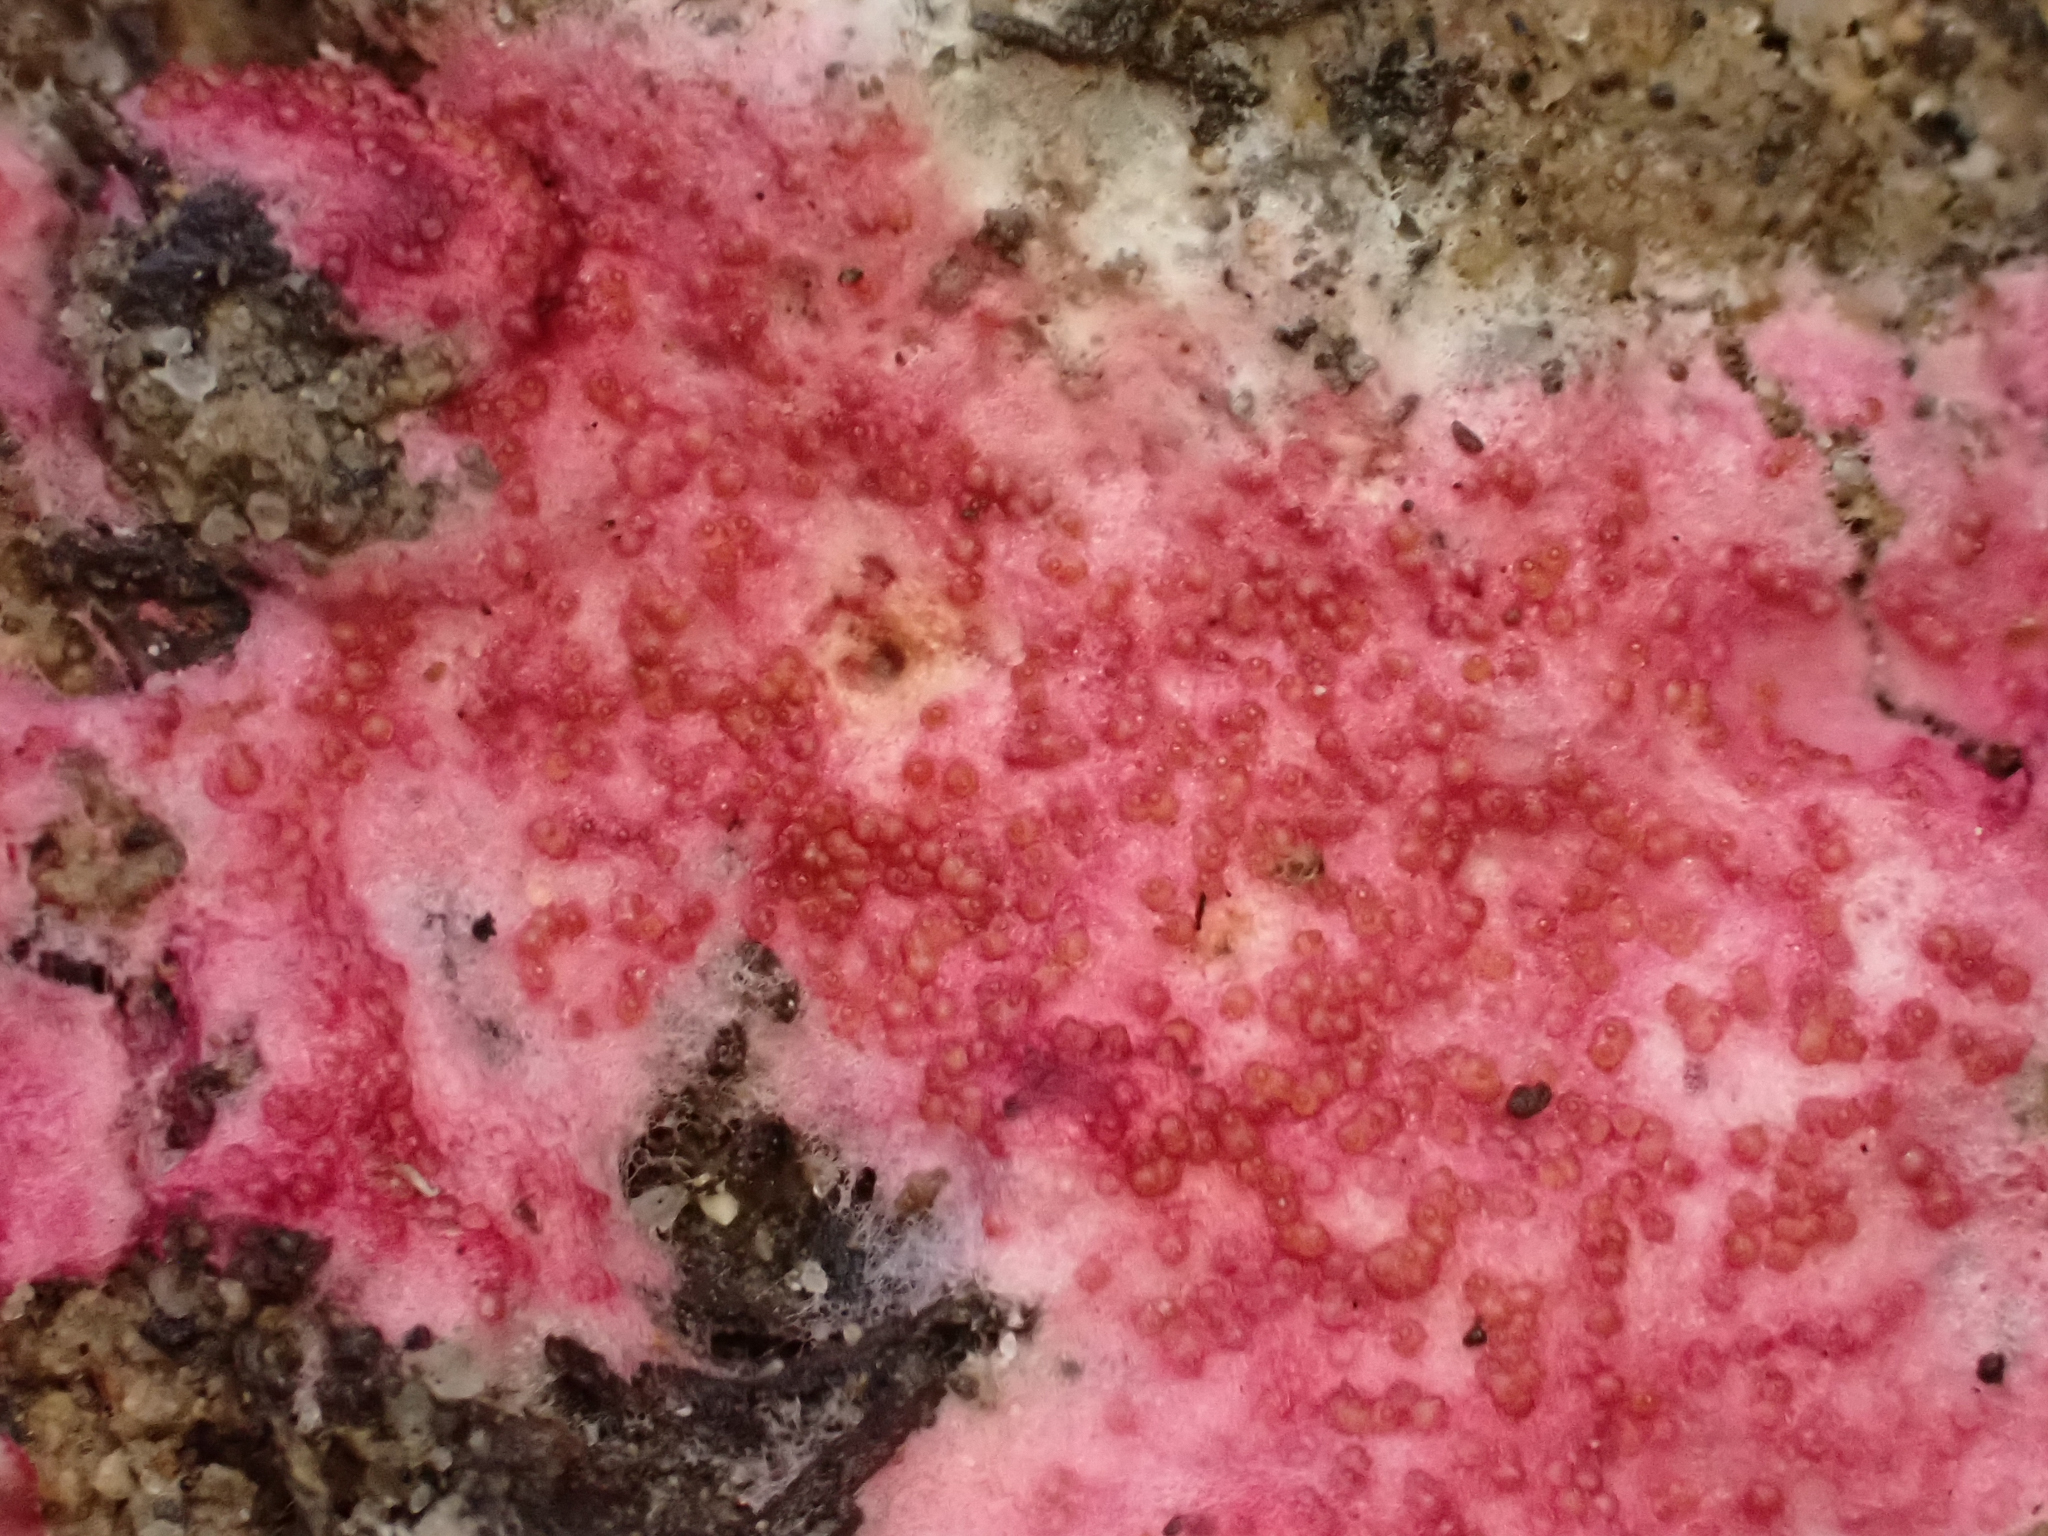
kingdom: Fungi
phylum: Ascomycota
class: Sordariomycetes
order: Hypocreales
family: Hypocreaceae
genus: Hypomyces
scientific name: Hypomyces rosellus
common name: Pink polypore mould
